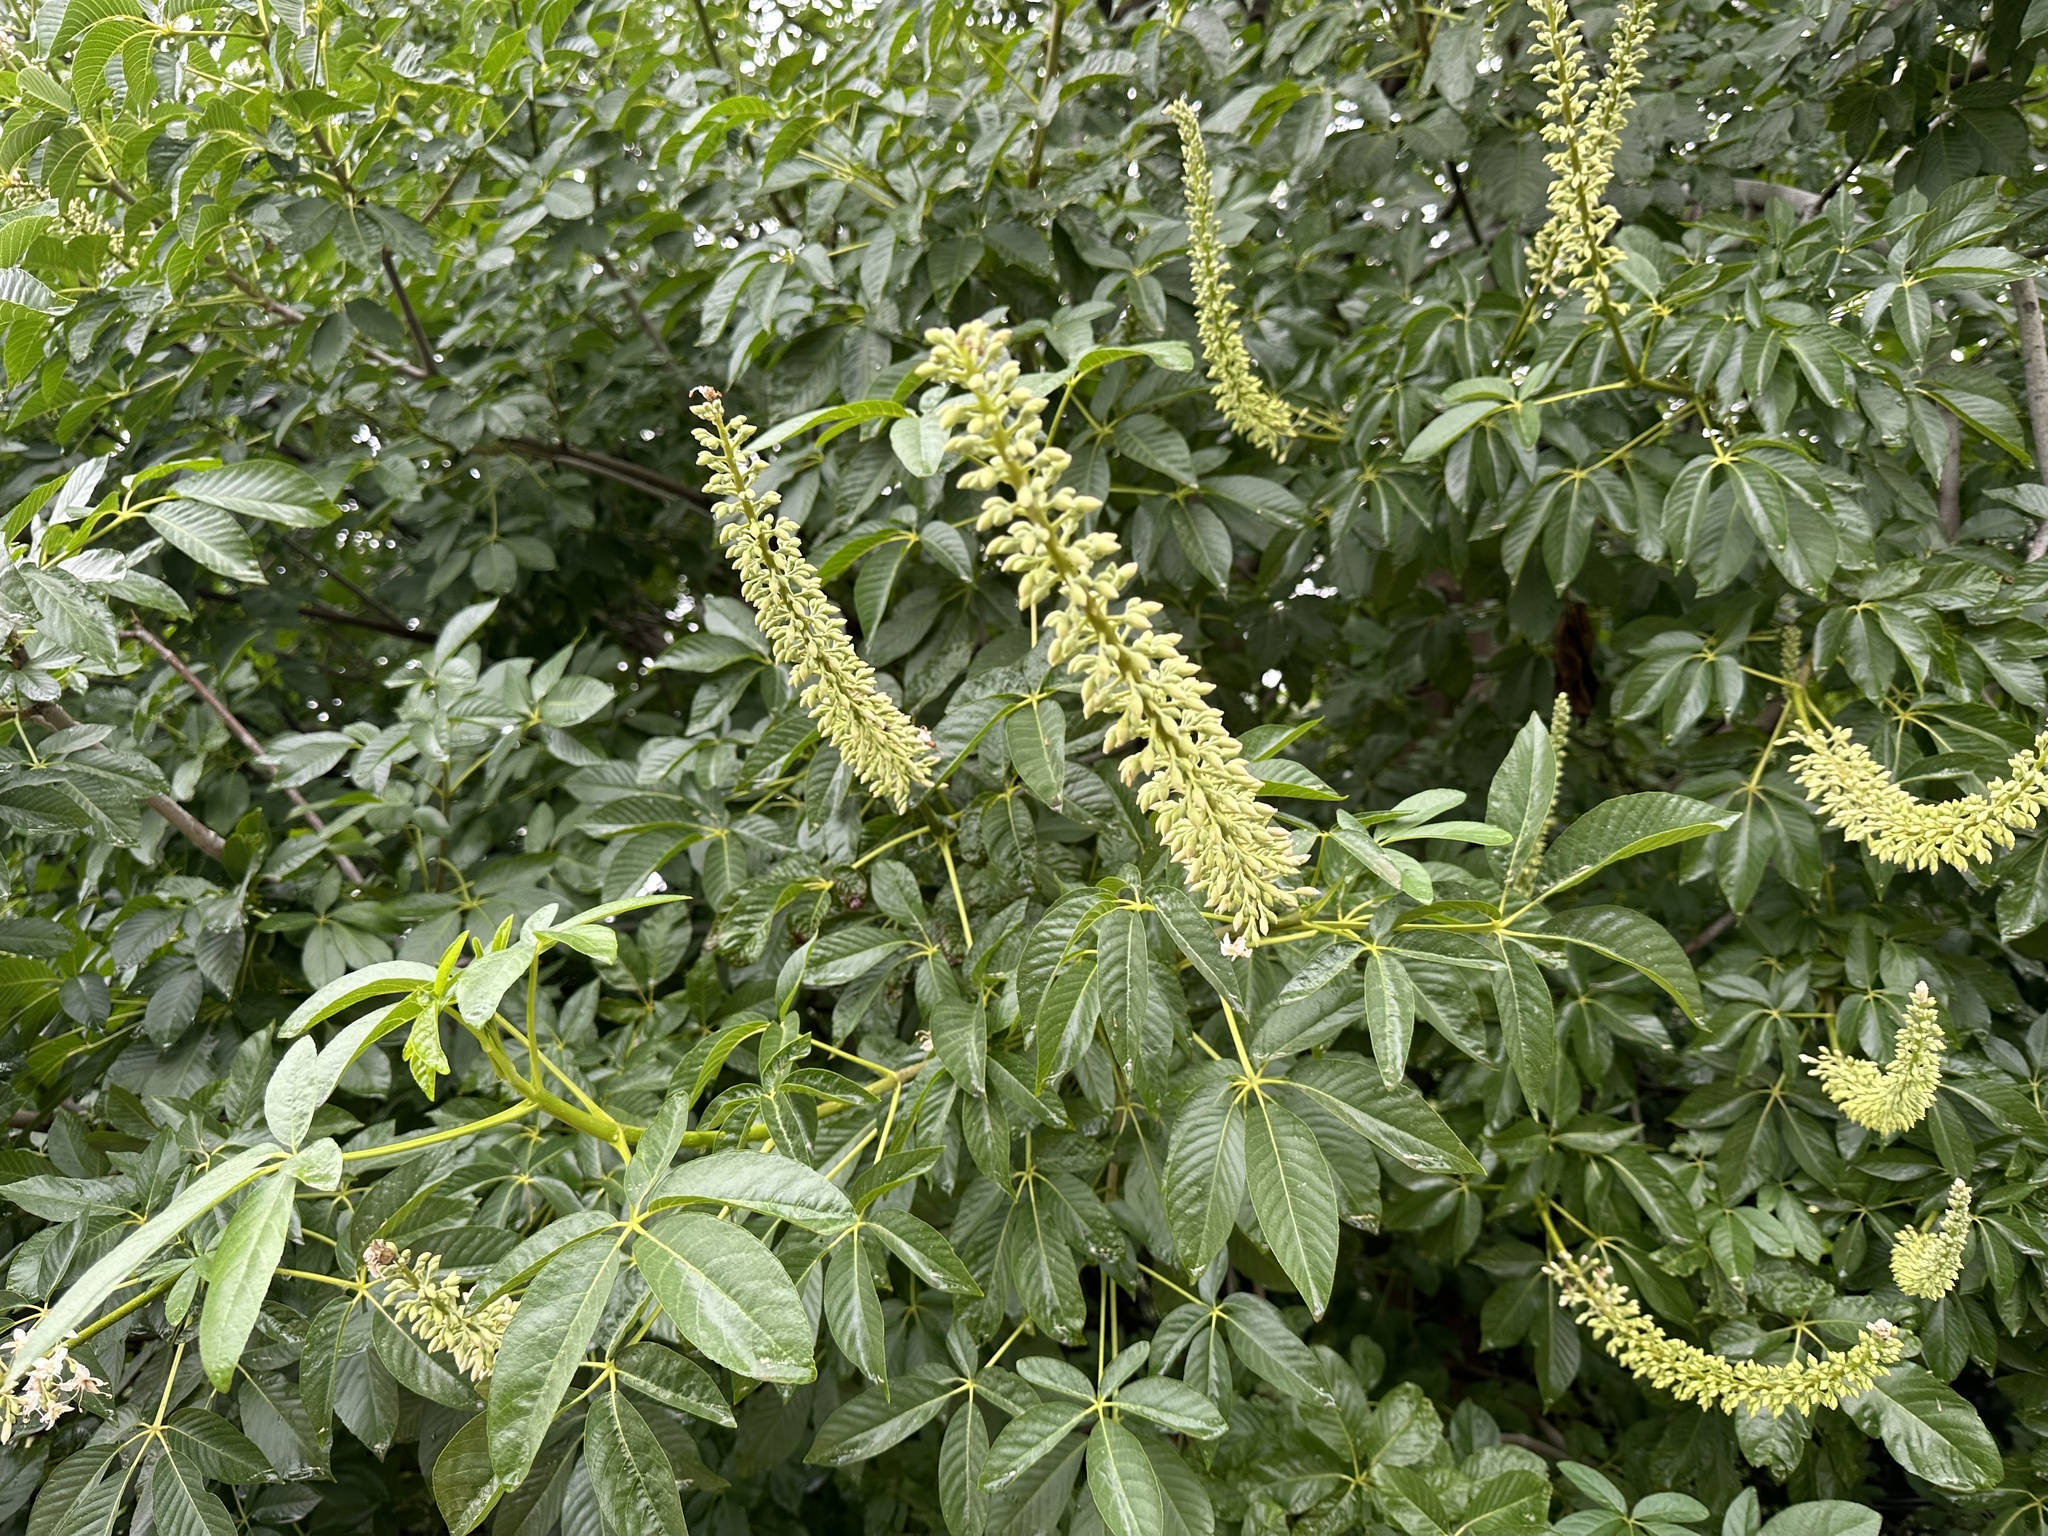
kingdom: Plantae
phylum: Tracheophyta
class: Magnoliopsida
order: Sapindales
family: Sapindaceae
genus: Aesculus
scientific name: Aesculus californica
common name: California buckeye
